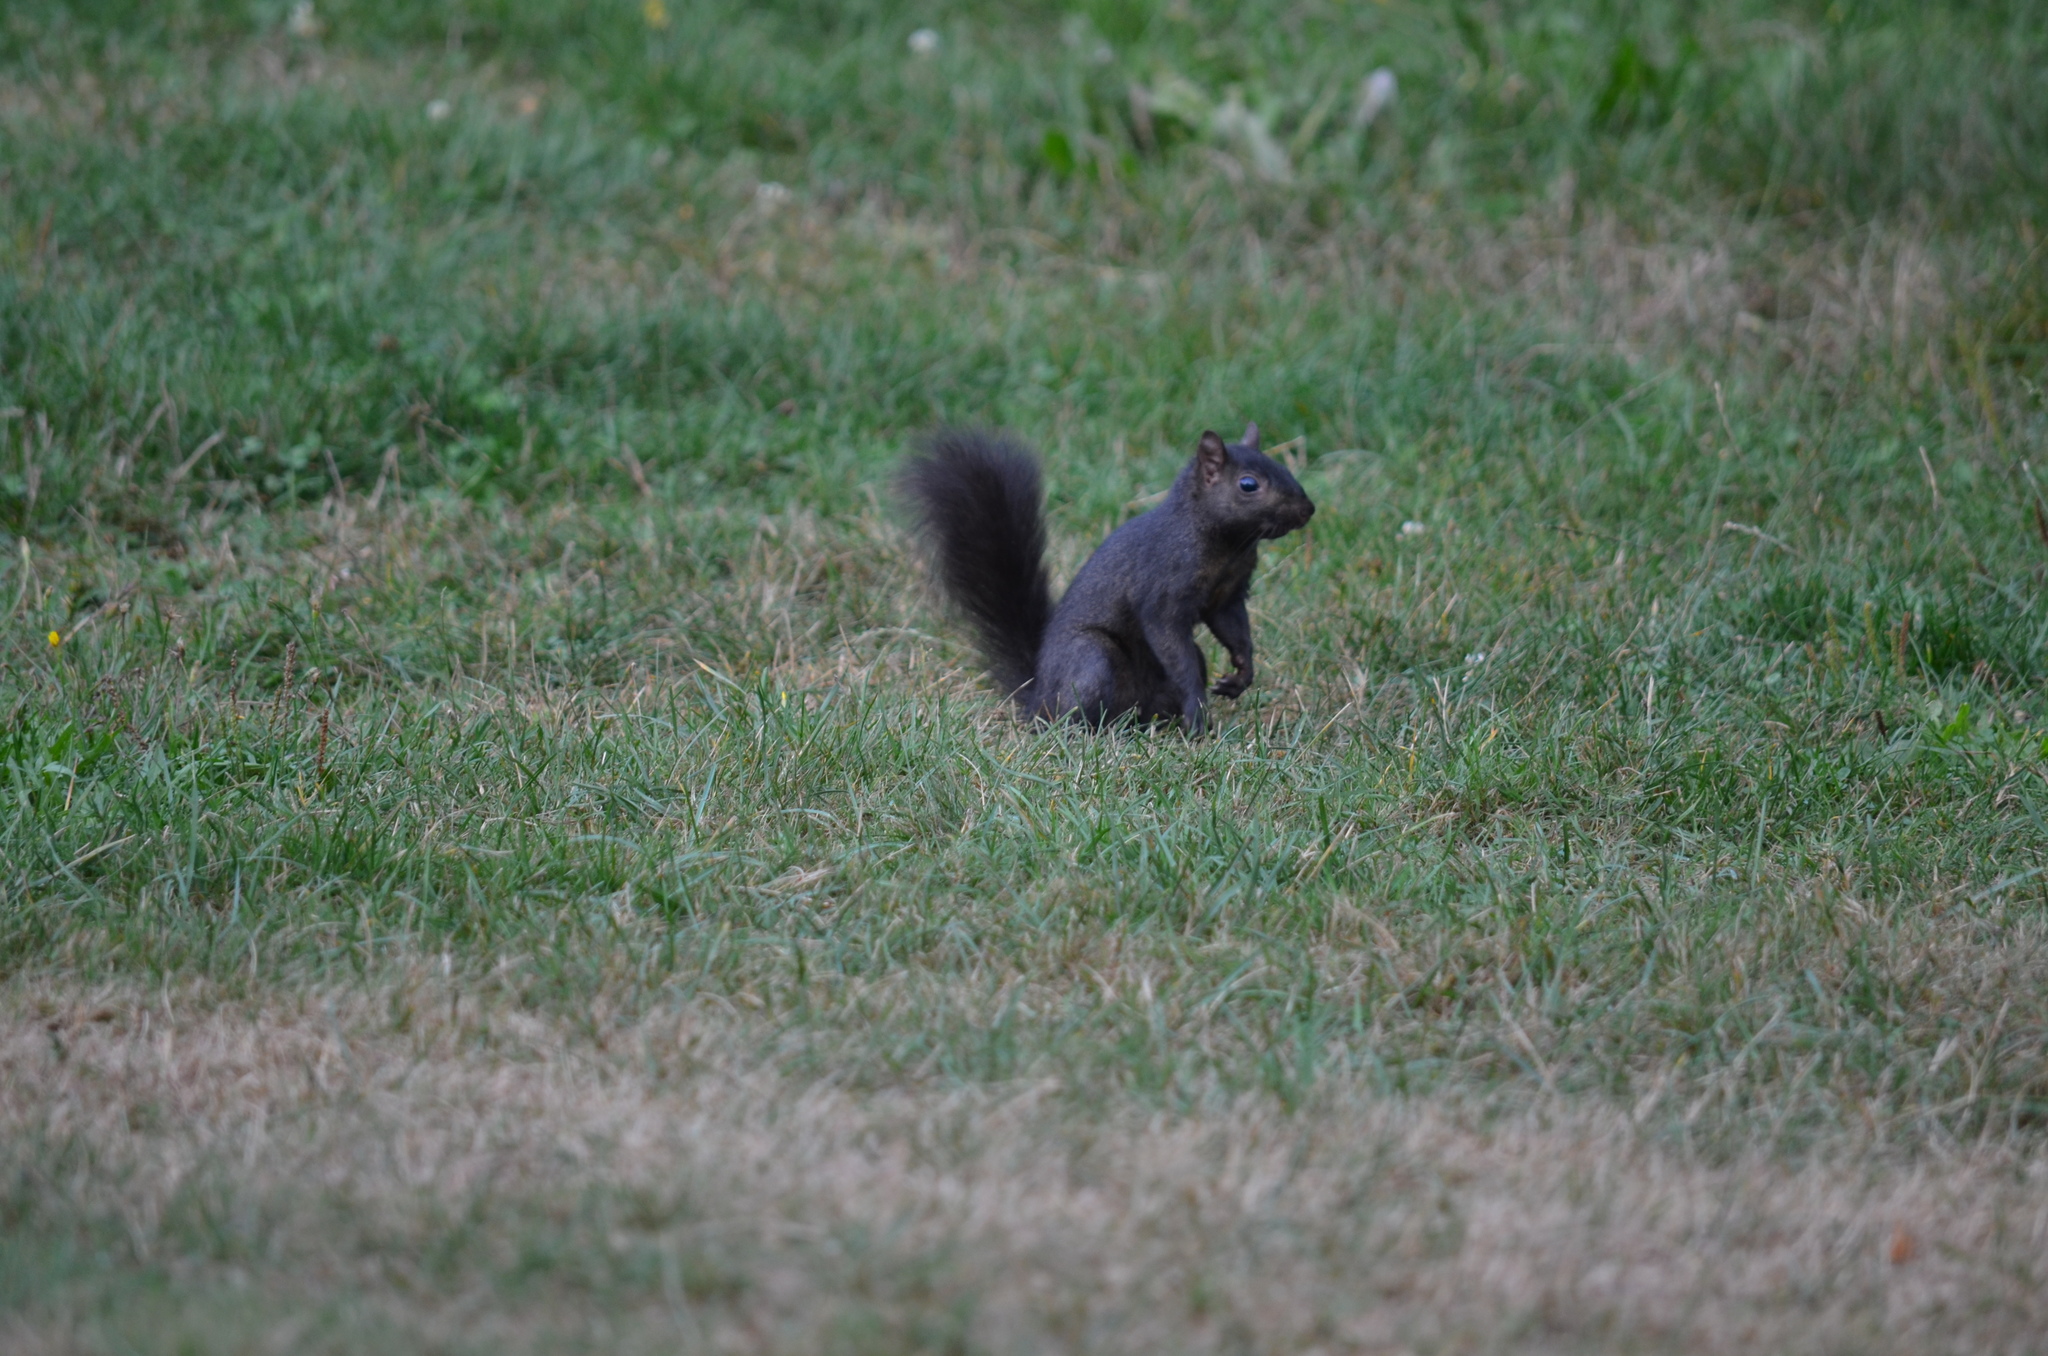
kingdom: Animalia
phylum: Chordata
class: Mammalia
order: Rodentia
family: Sciuridae
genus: Sciurus
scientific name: Sciurus carolinensis
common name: Eastern gray squirrel
